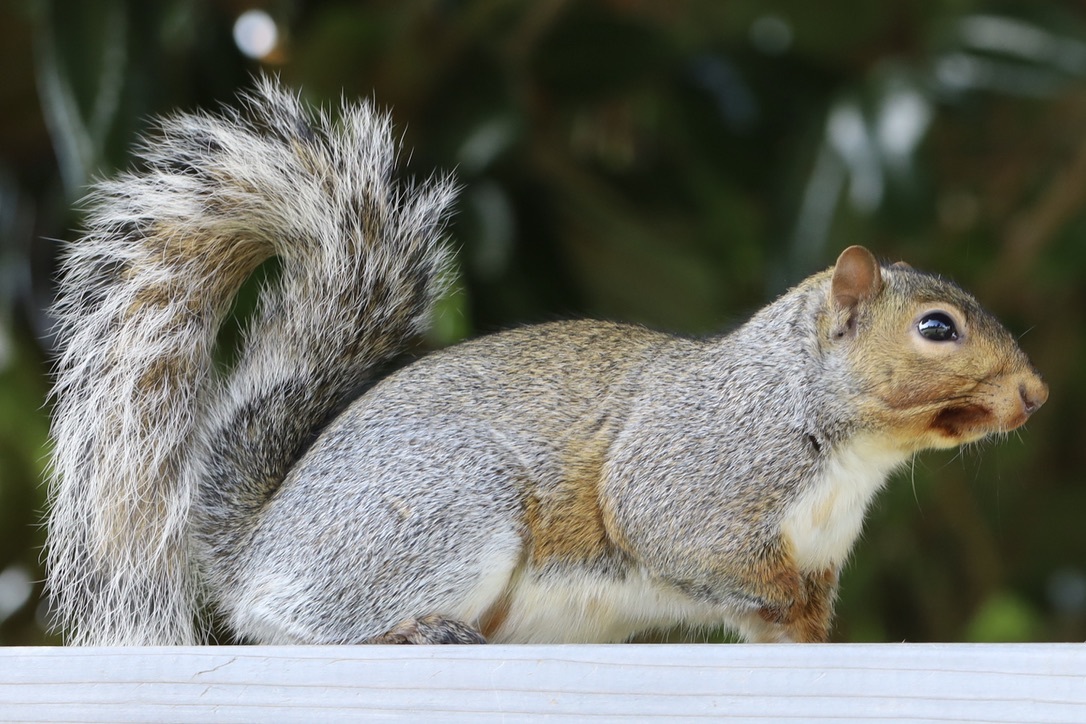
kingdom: Animalia
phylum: Chordata
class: Mammalia
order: Rodentia
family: Sciuridae
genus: Sciurus
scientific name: Sciurus carolinensis
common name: Eastern gray squirrel
